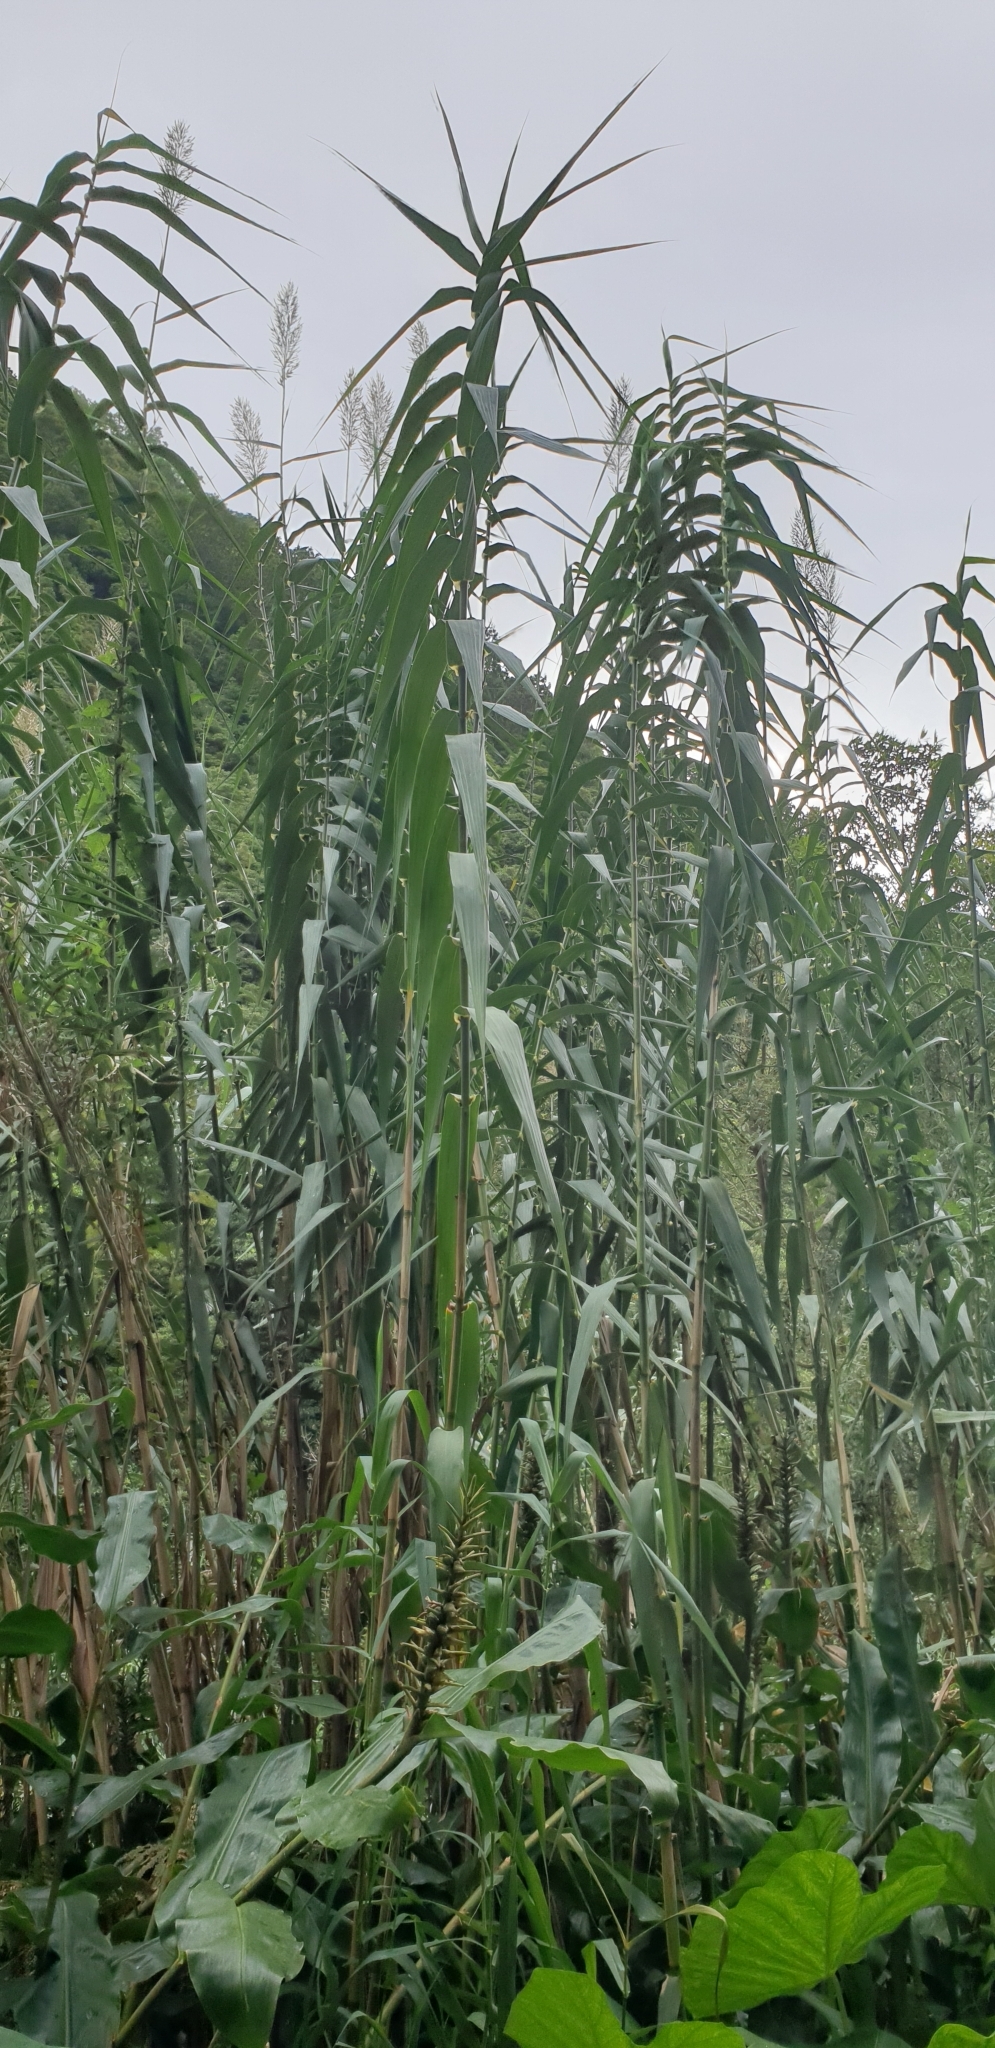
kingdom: Plantae
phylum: Tracheophyta
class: Liliopsida
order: Poales
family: Poaceae
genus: Arundo
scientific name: Arundo donax
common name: Giant reed
